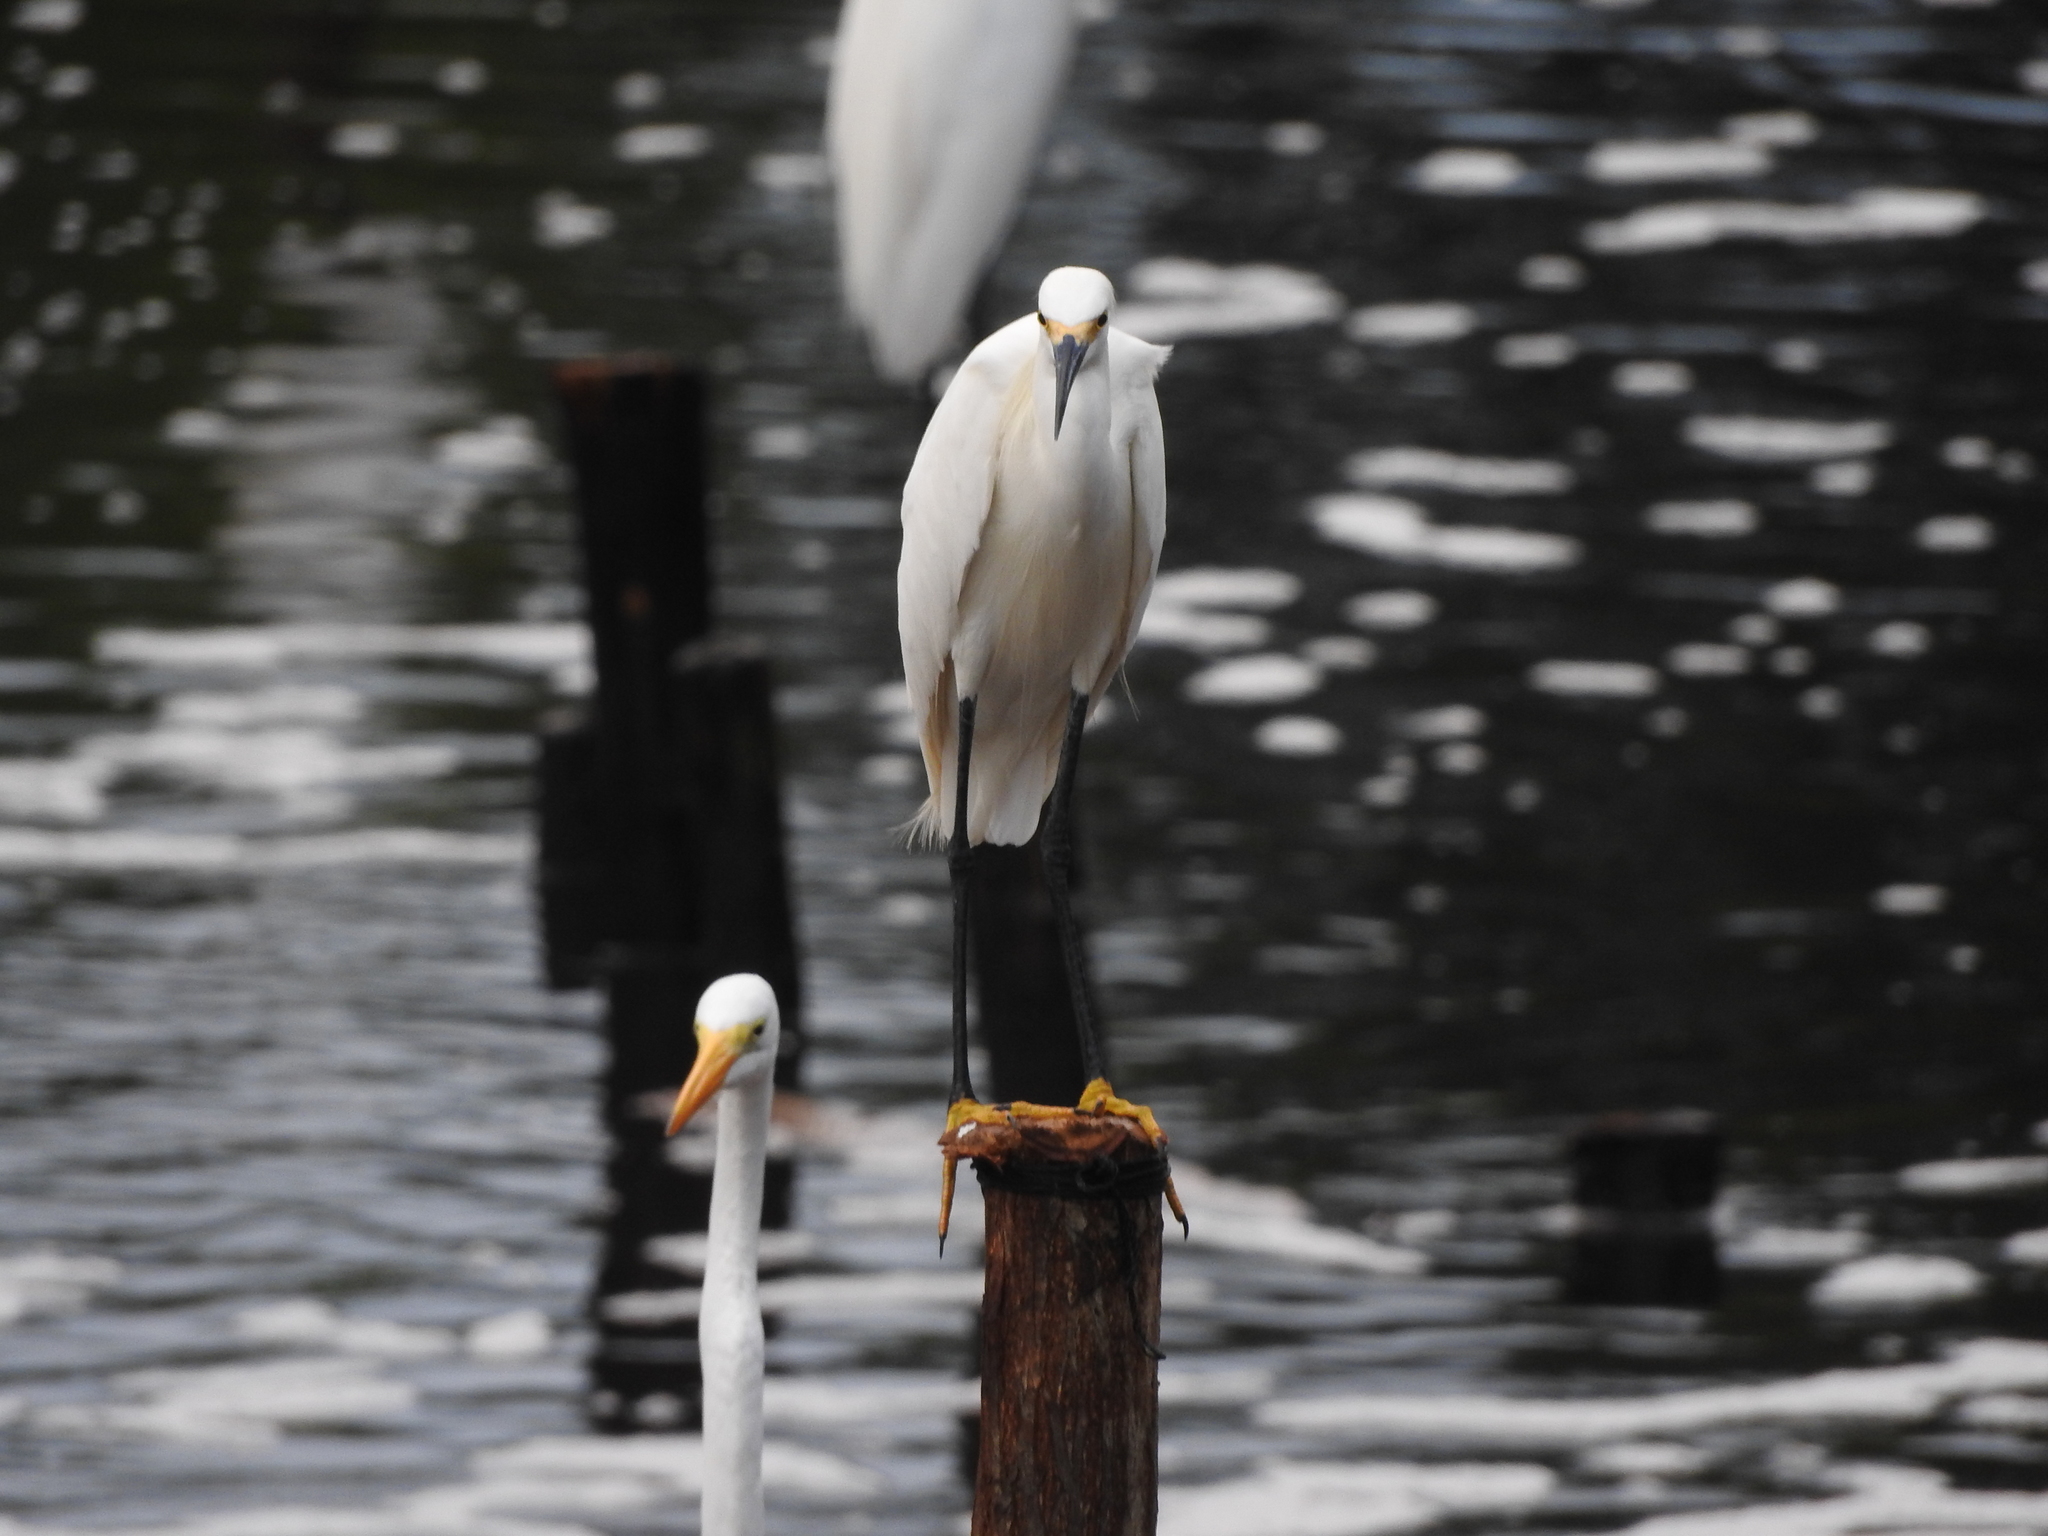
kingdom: Animalia
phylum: Chordata
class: Aves
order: Pelecaniformes
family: Ardeidae
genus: Egretta
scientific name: Egretta thula
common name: Snowy egret
